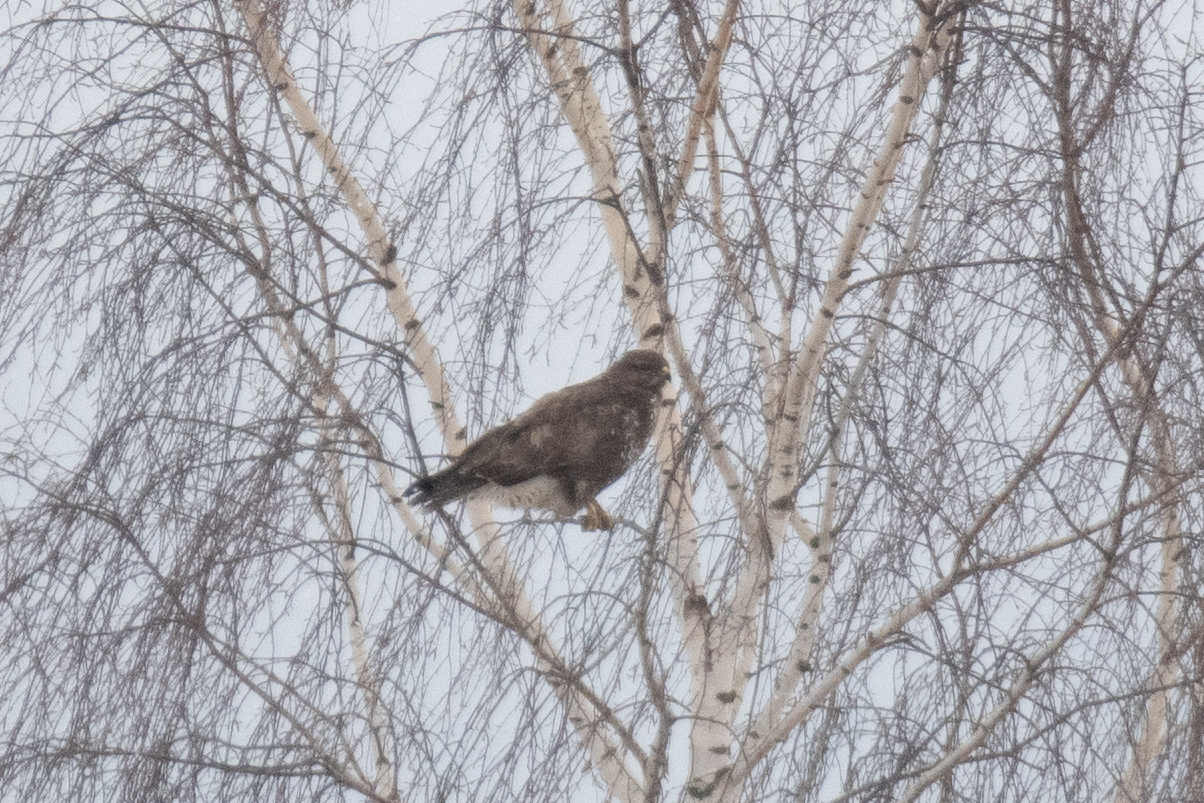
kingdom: Animalia
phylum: Chordata
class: Aves
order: Accipitriformes
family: Accipitridae
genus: Buteo
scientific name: Buteo buteo
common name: Common buzzard
